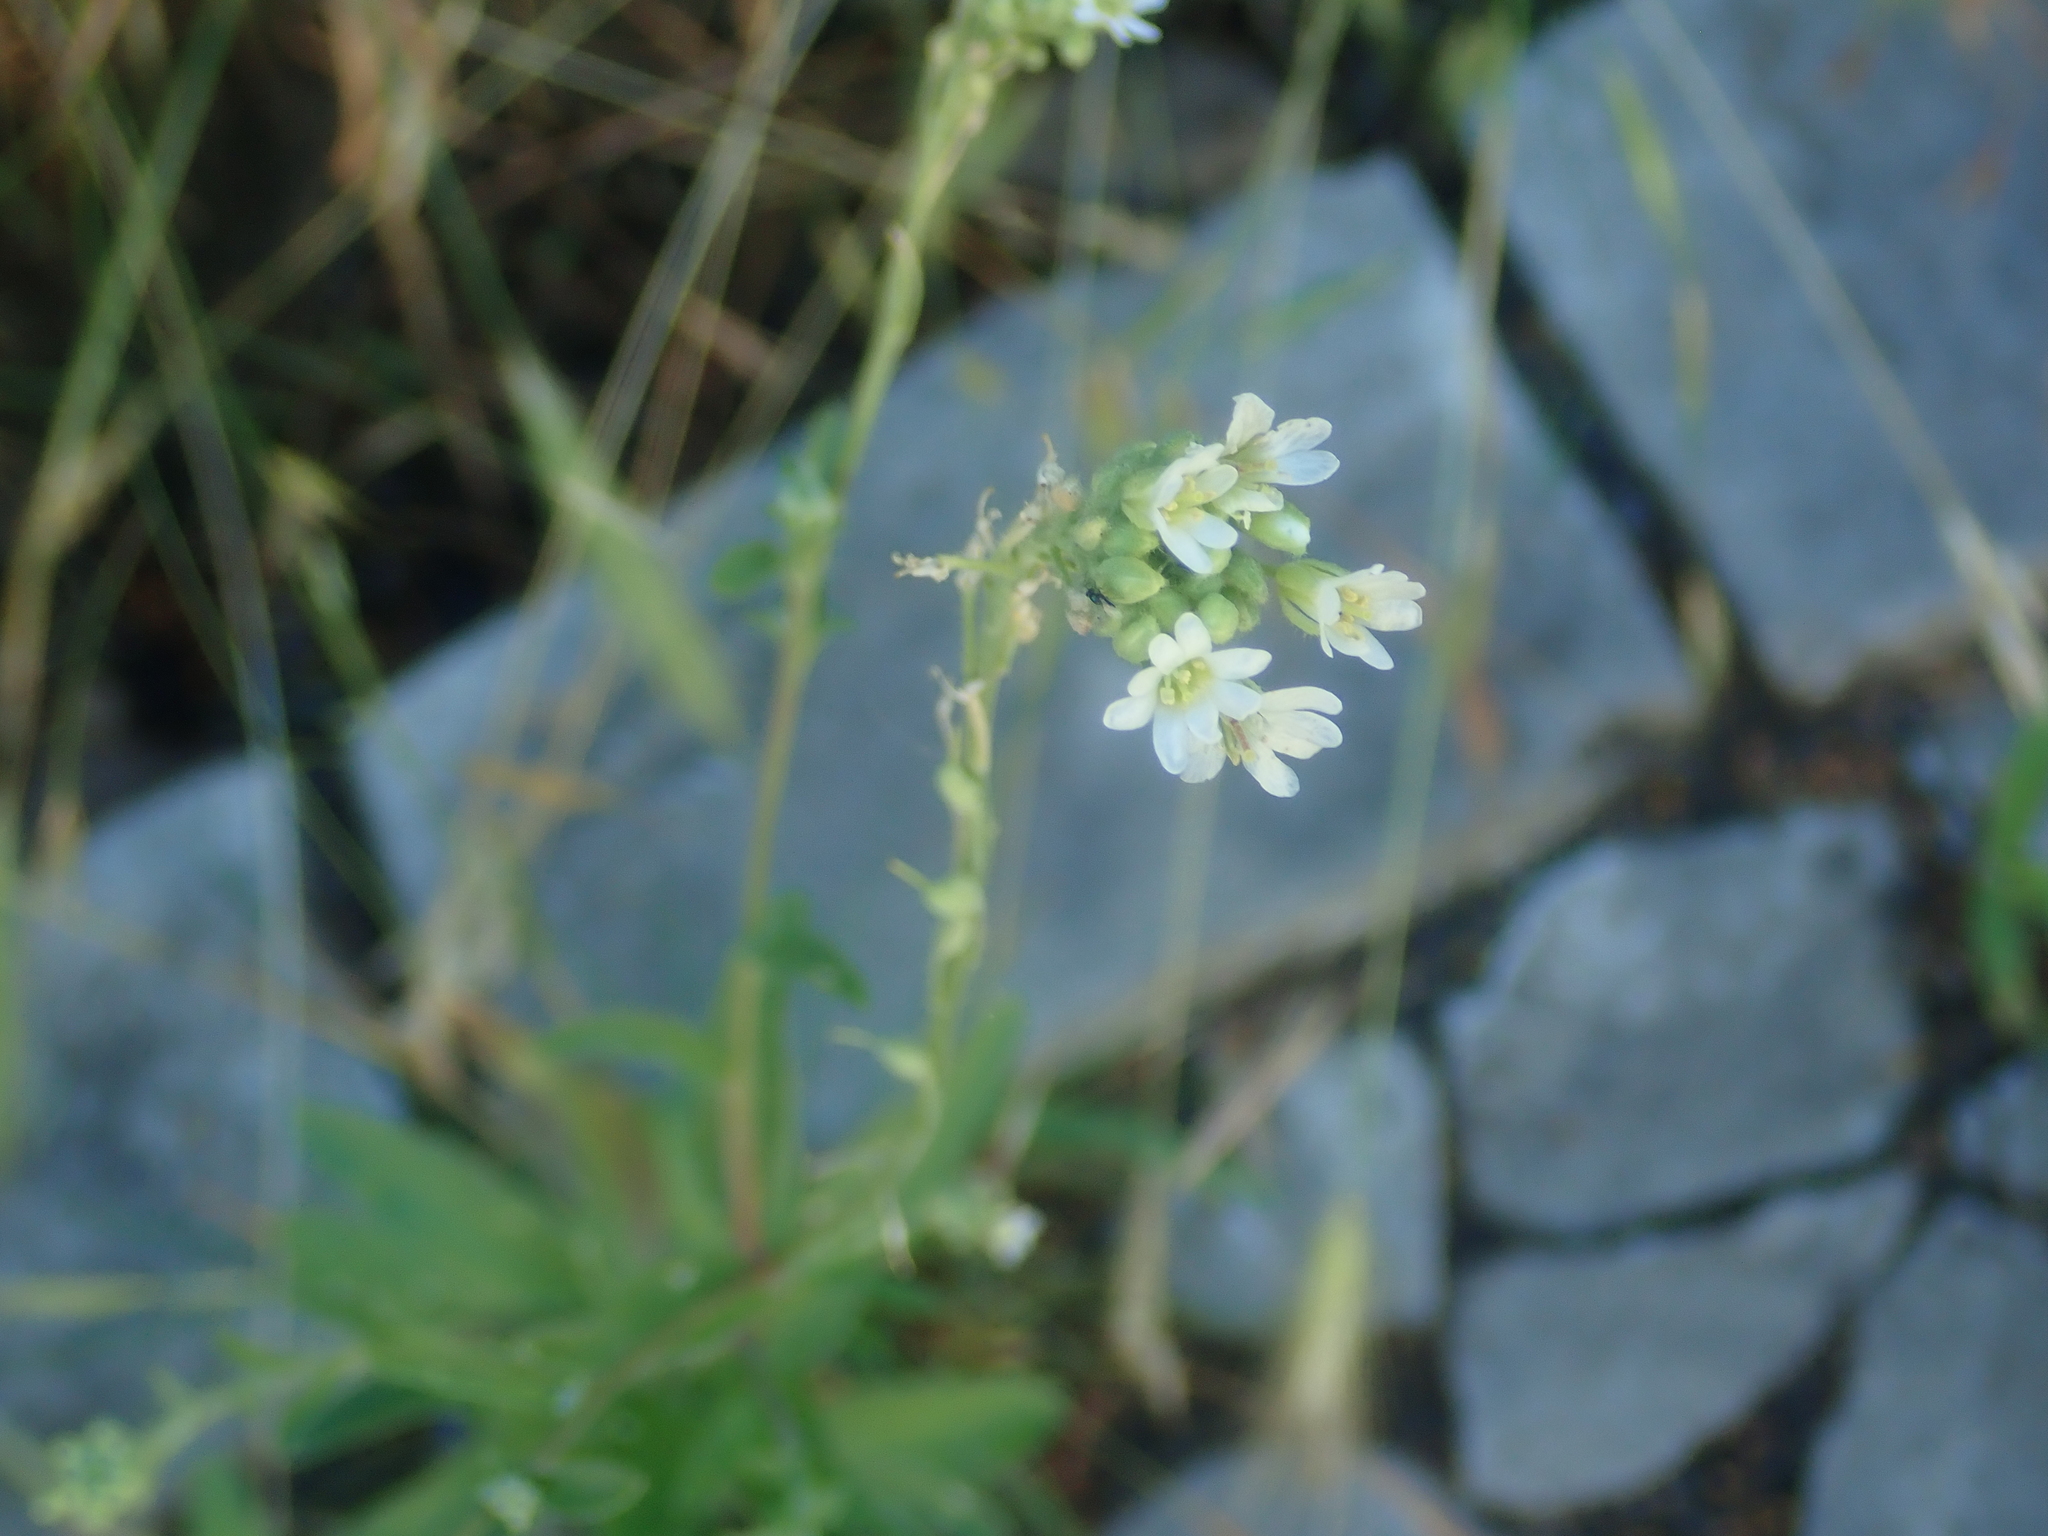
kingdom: Plantae
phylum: Tracheophyta
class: Magnoliopsida
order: Brassicales
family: Brassicaceae
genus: Berteroa
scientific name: Berteroa incana
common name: Hoary alison
